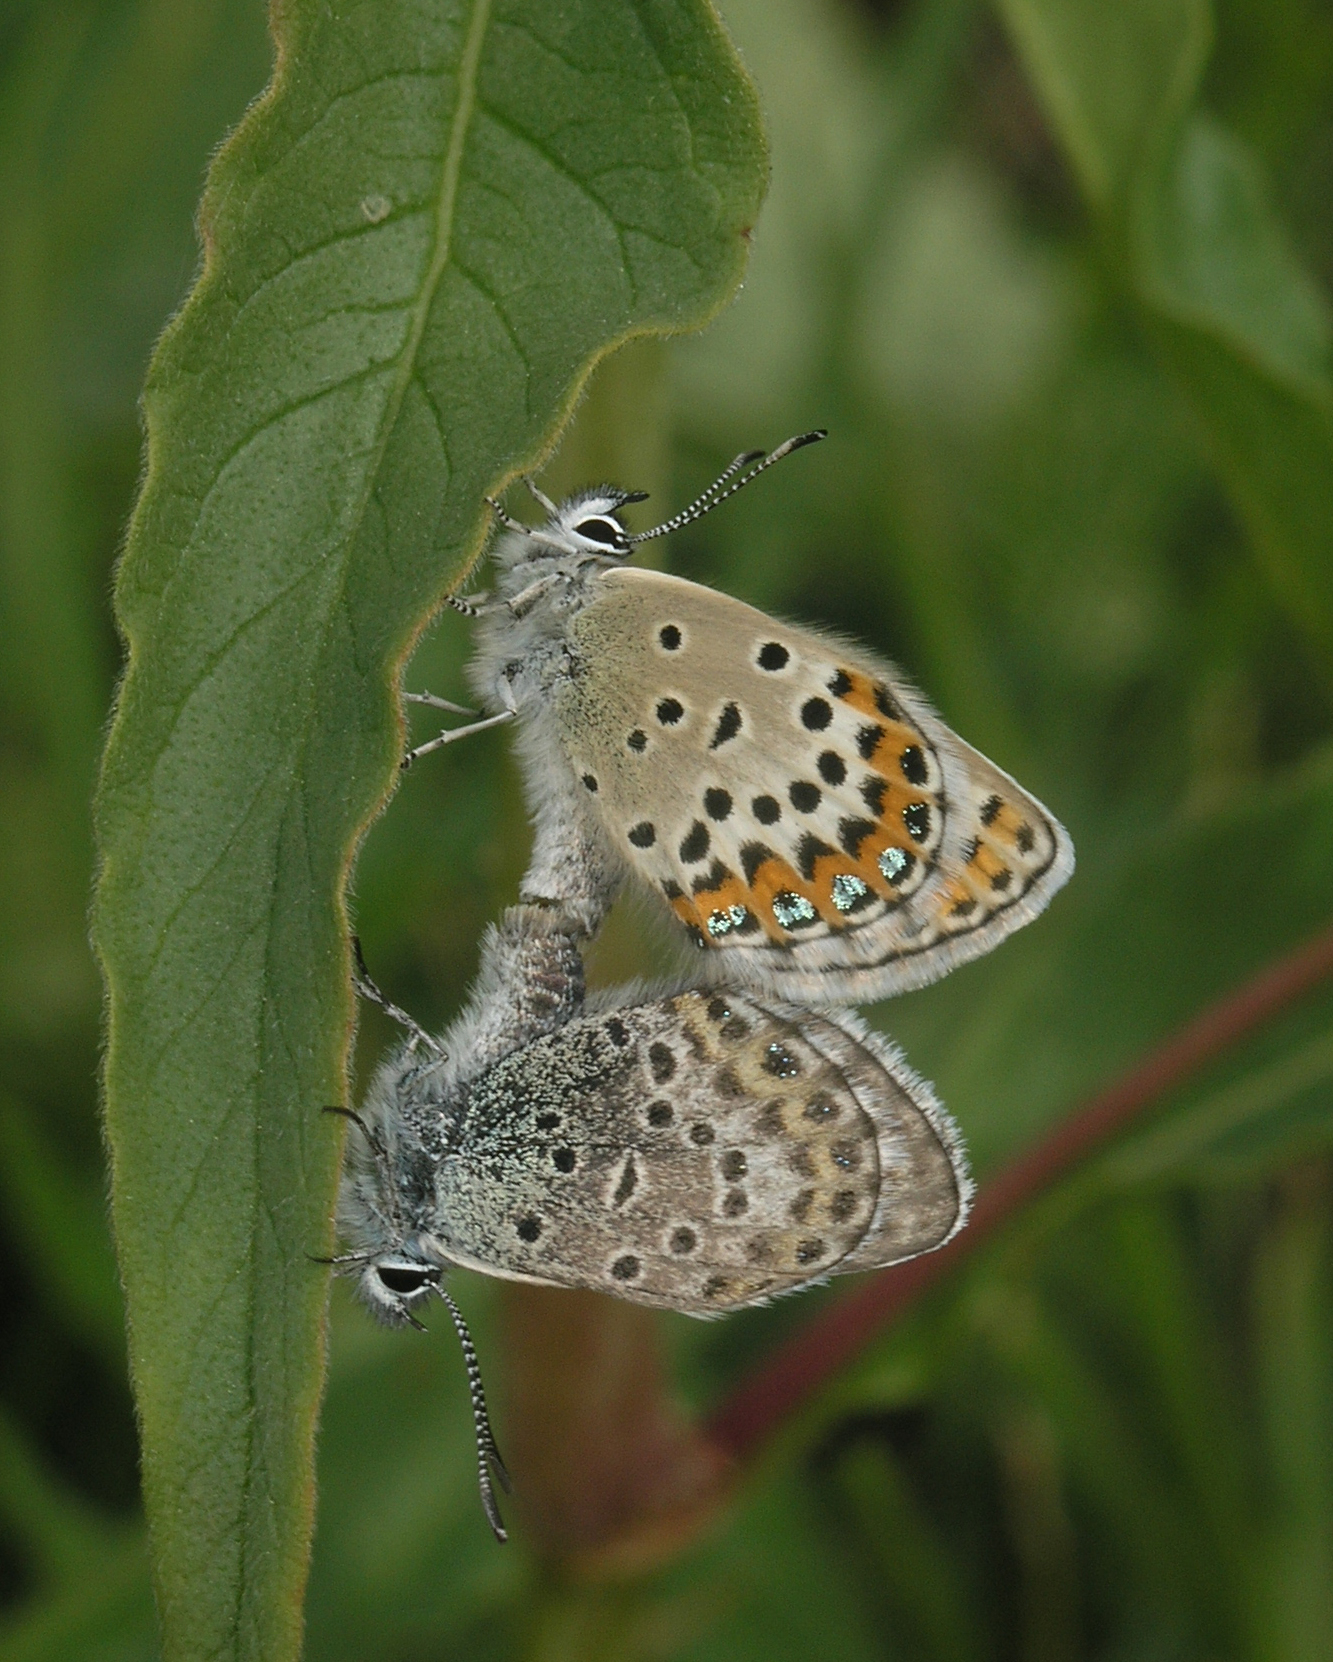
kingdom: Animalia
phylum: Arthropoda
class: Insecta
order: Lepidoptera
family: Lycaenidae
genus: Lycaeides
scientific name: Lycaeides idas
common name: Northern blue
